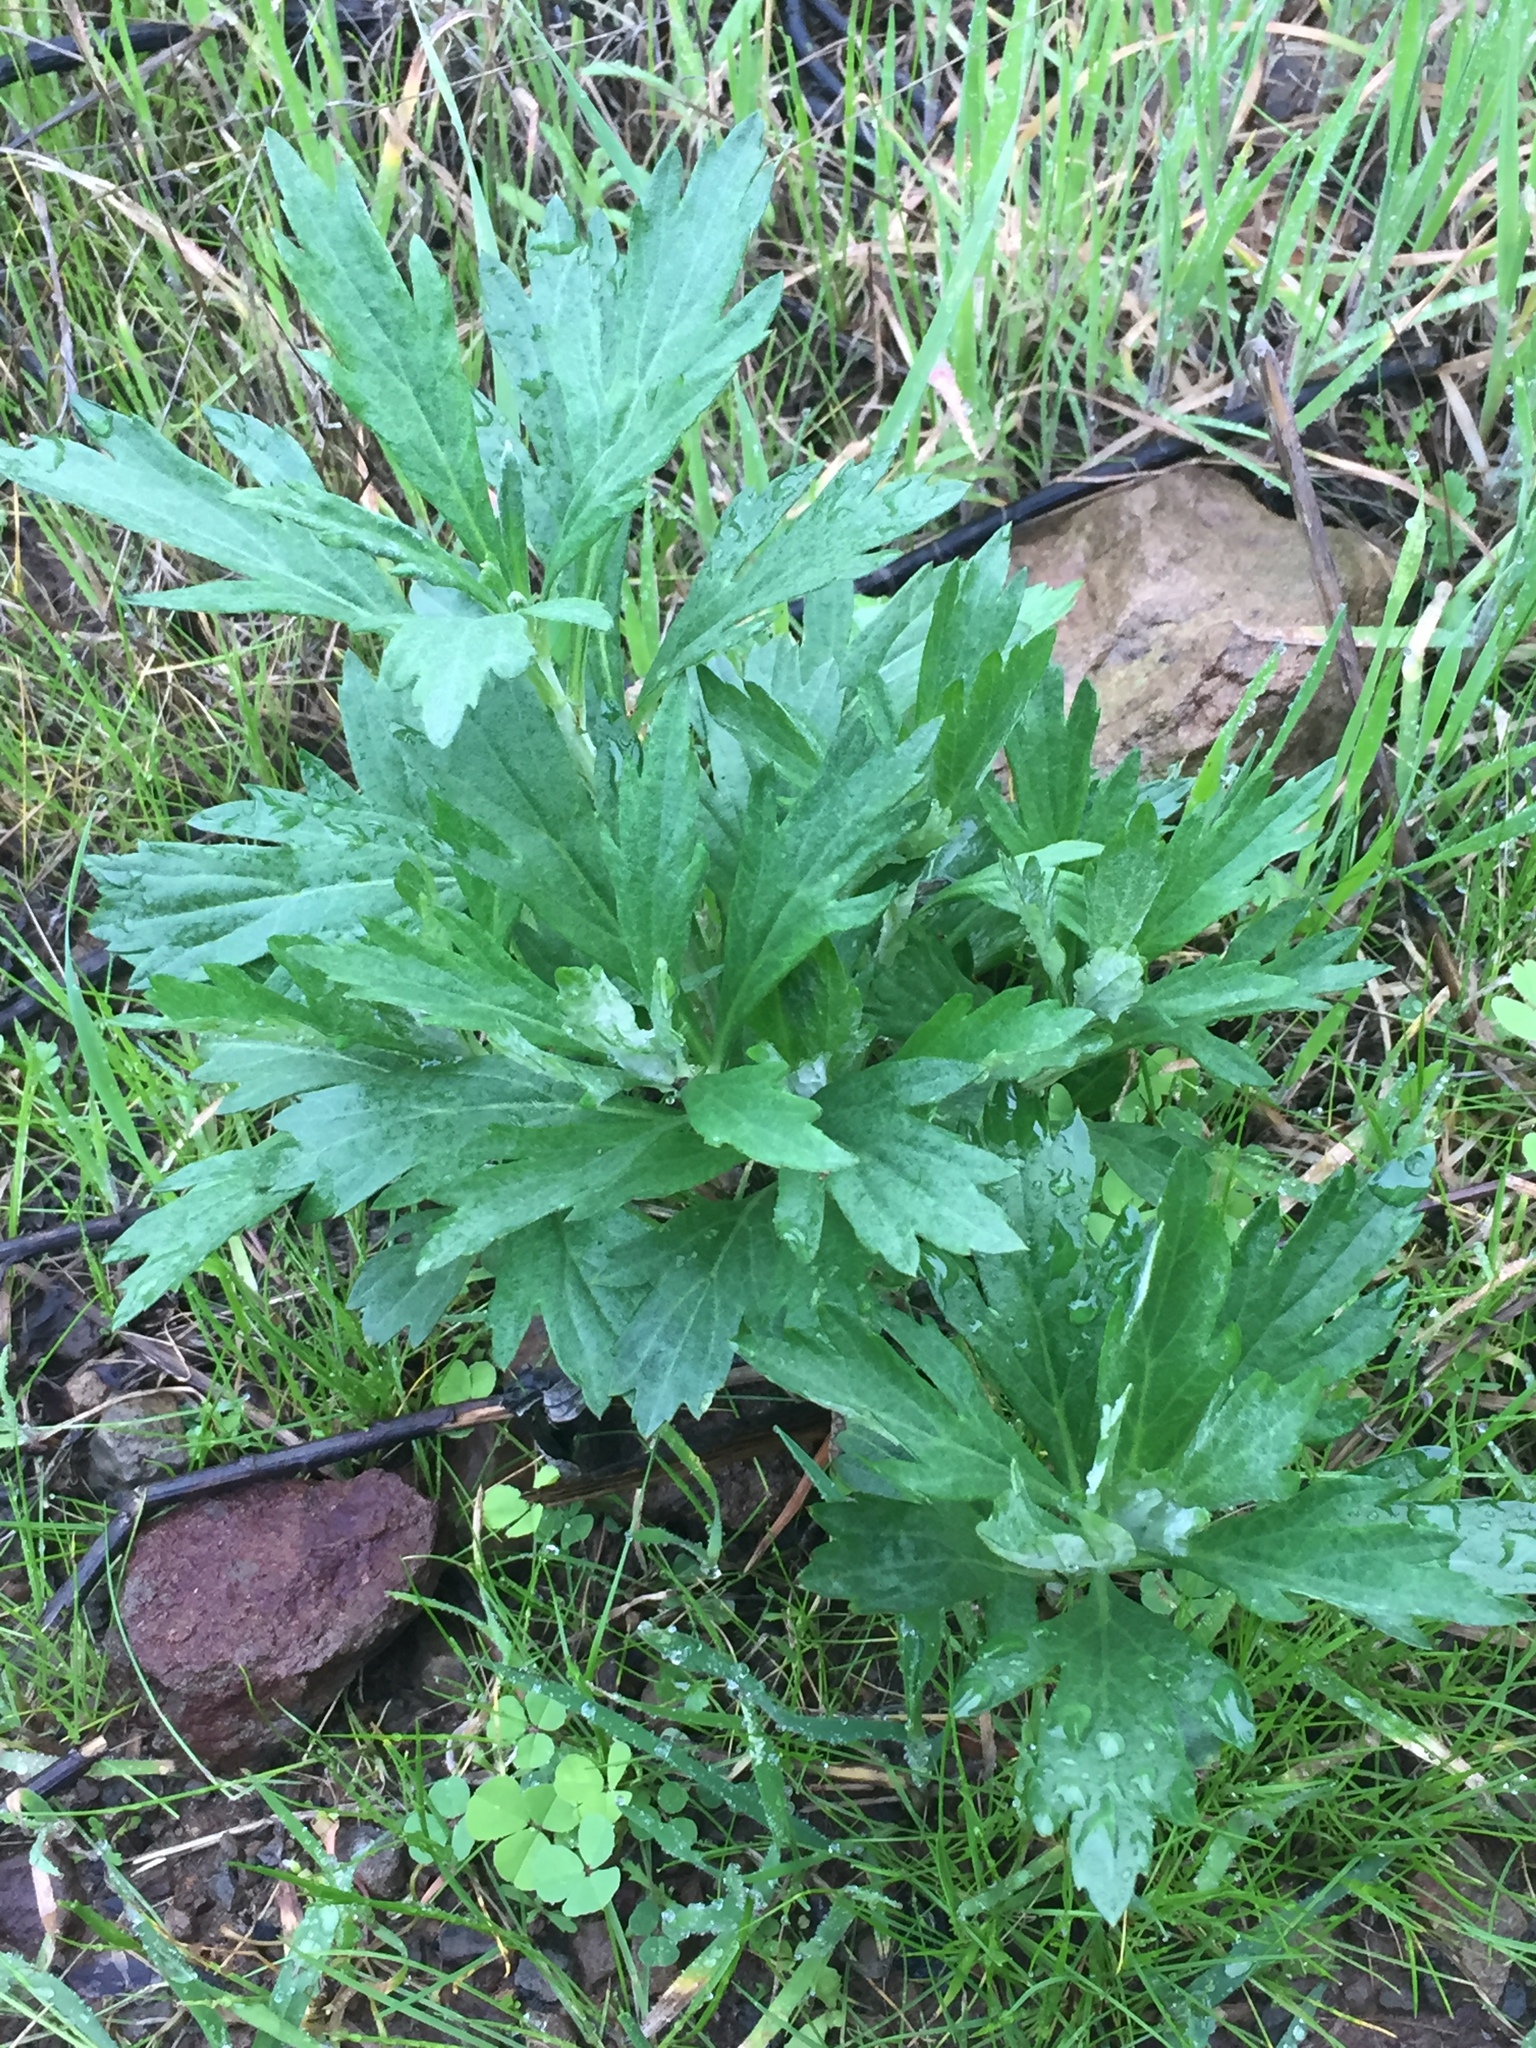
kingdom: Plantae
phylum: Tracheophyta
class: Magnoliopsida
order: Asterales
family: Asteraceae
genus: Artemisia
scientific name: Artemisia douglasiana
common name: Northwest mugwort
